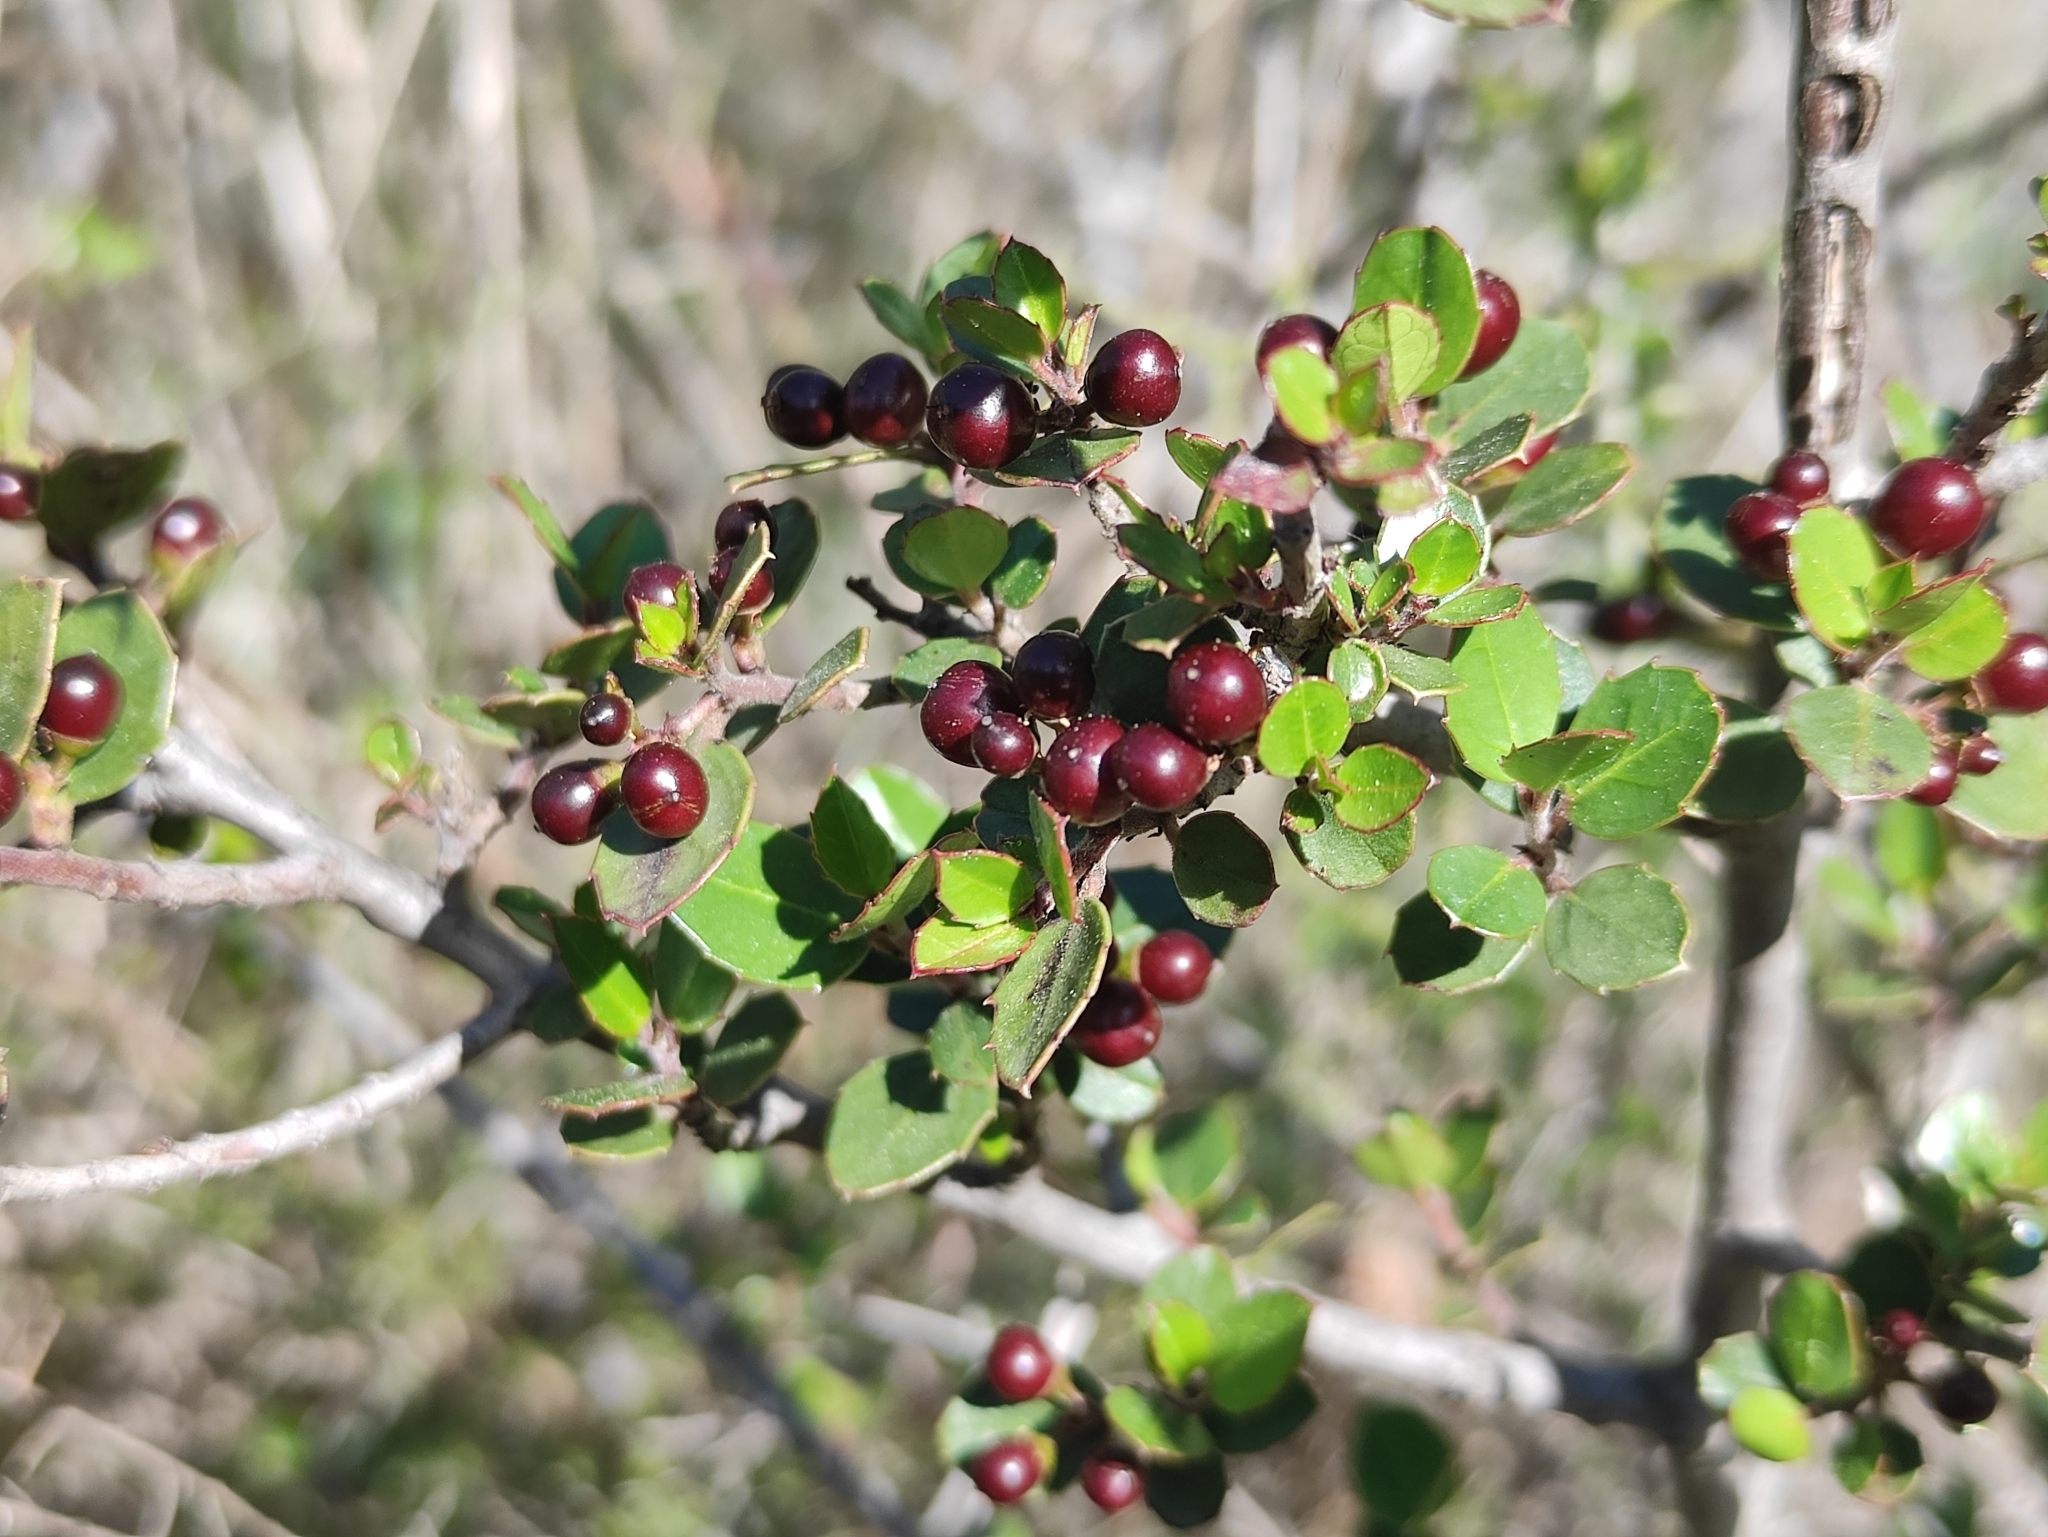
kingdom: Plantae
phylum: Tracheophyta
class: Magnoliopsida
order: Rosales
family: Rhamnaceae
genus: Rhamnus
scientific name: Rhamnus alaternus
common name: Mediterranean buckthorn
